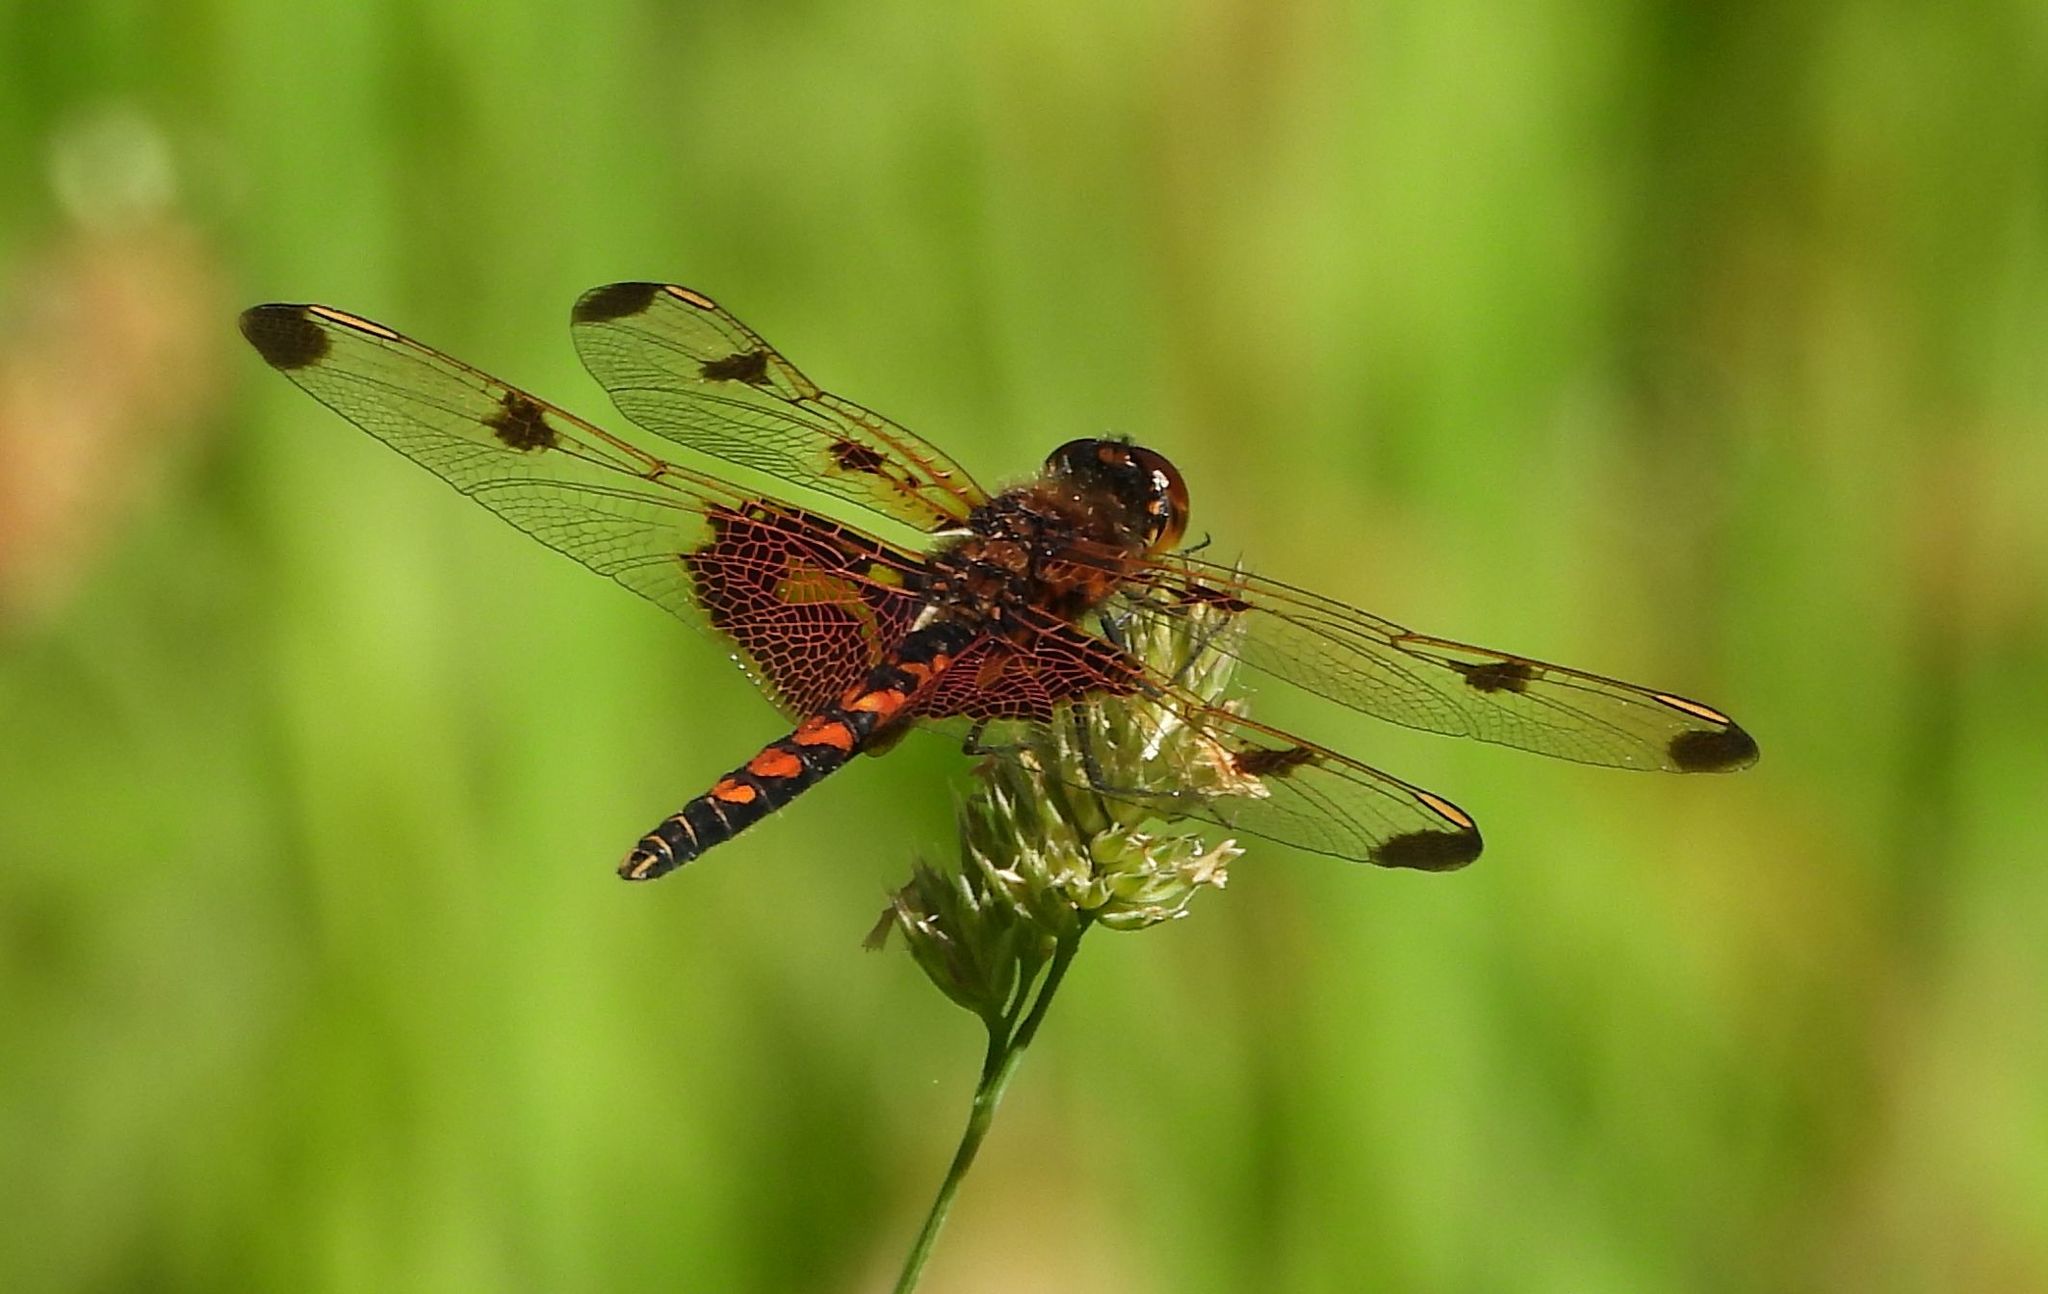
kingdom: Animalia
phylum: Arthropoda
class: Insecta
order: Odonata
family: Libellulidae
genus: Celithemis
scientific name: Celithemis elisa
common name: Calico pennant
